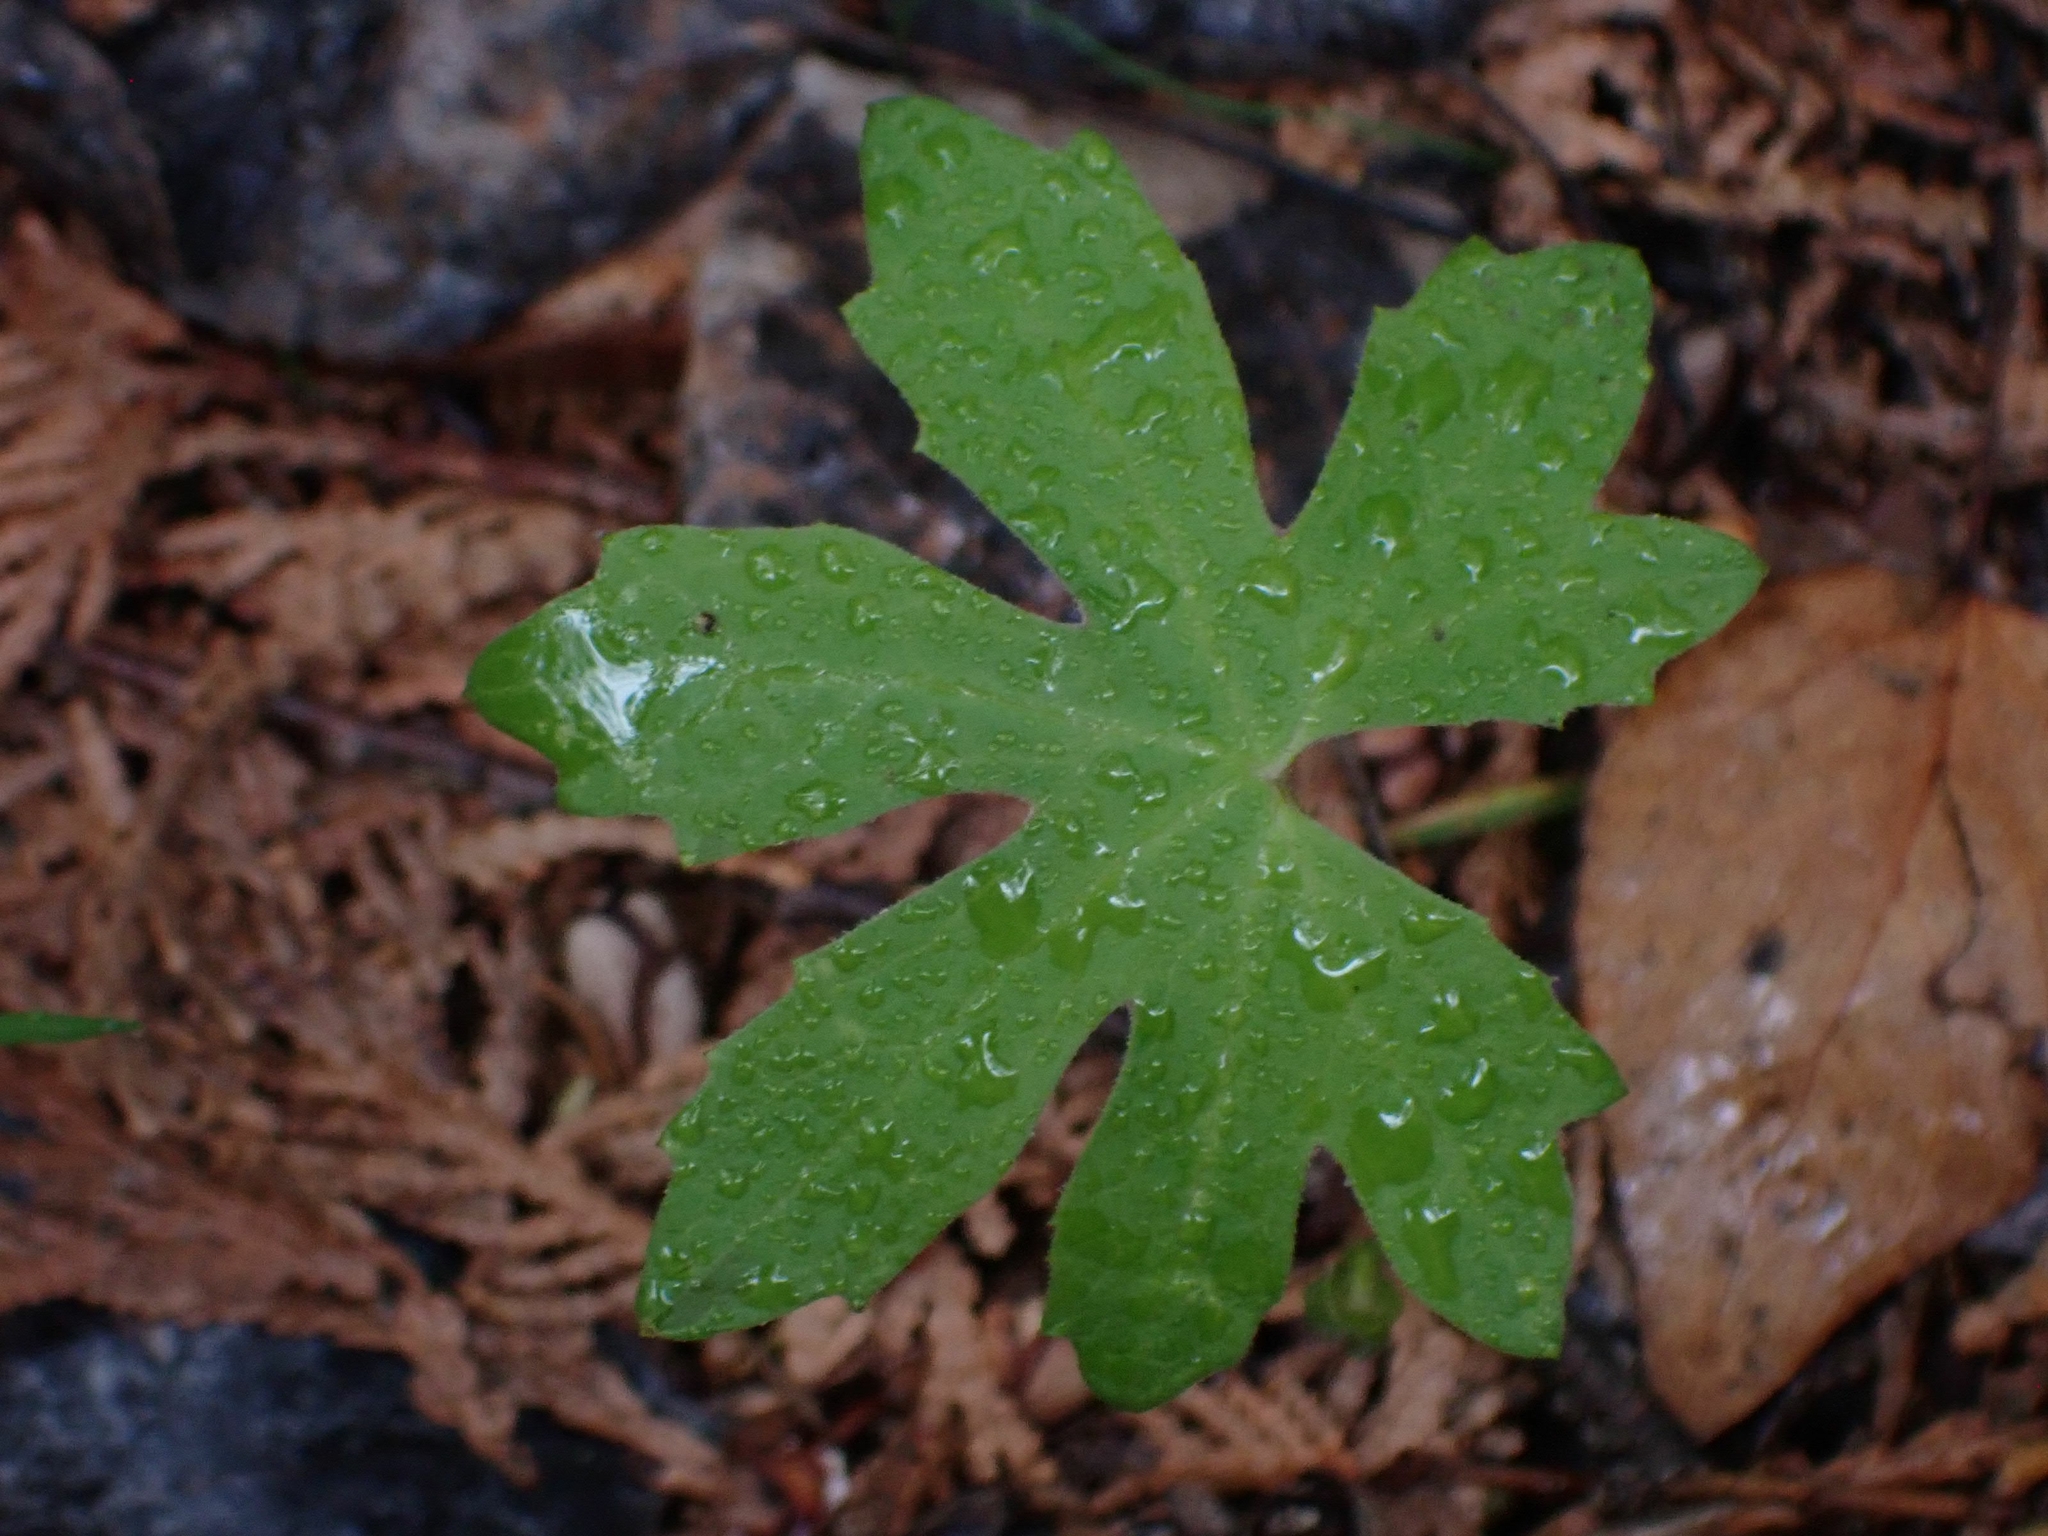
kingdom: Plantae
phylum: Tracheophyta
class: Magnoliopsida
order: Asterales
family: Asteraceae
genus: Petasites
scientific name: Petasites frigidus
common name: Arctic butterbur
